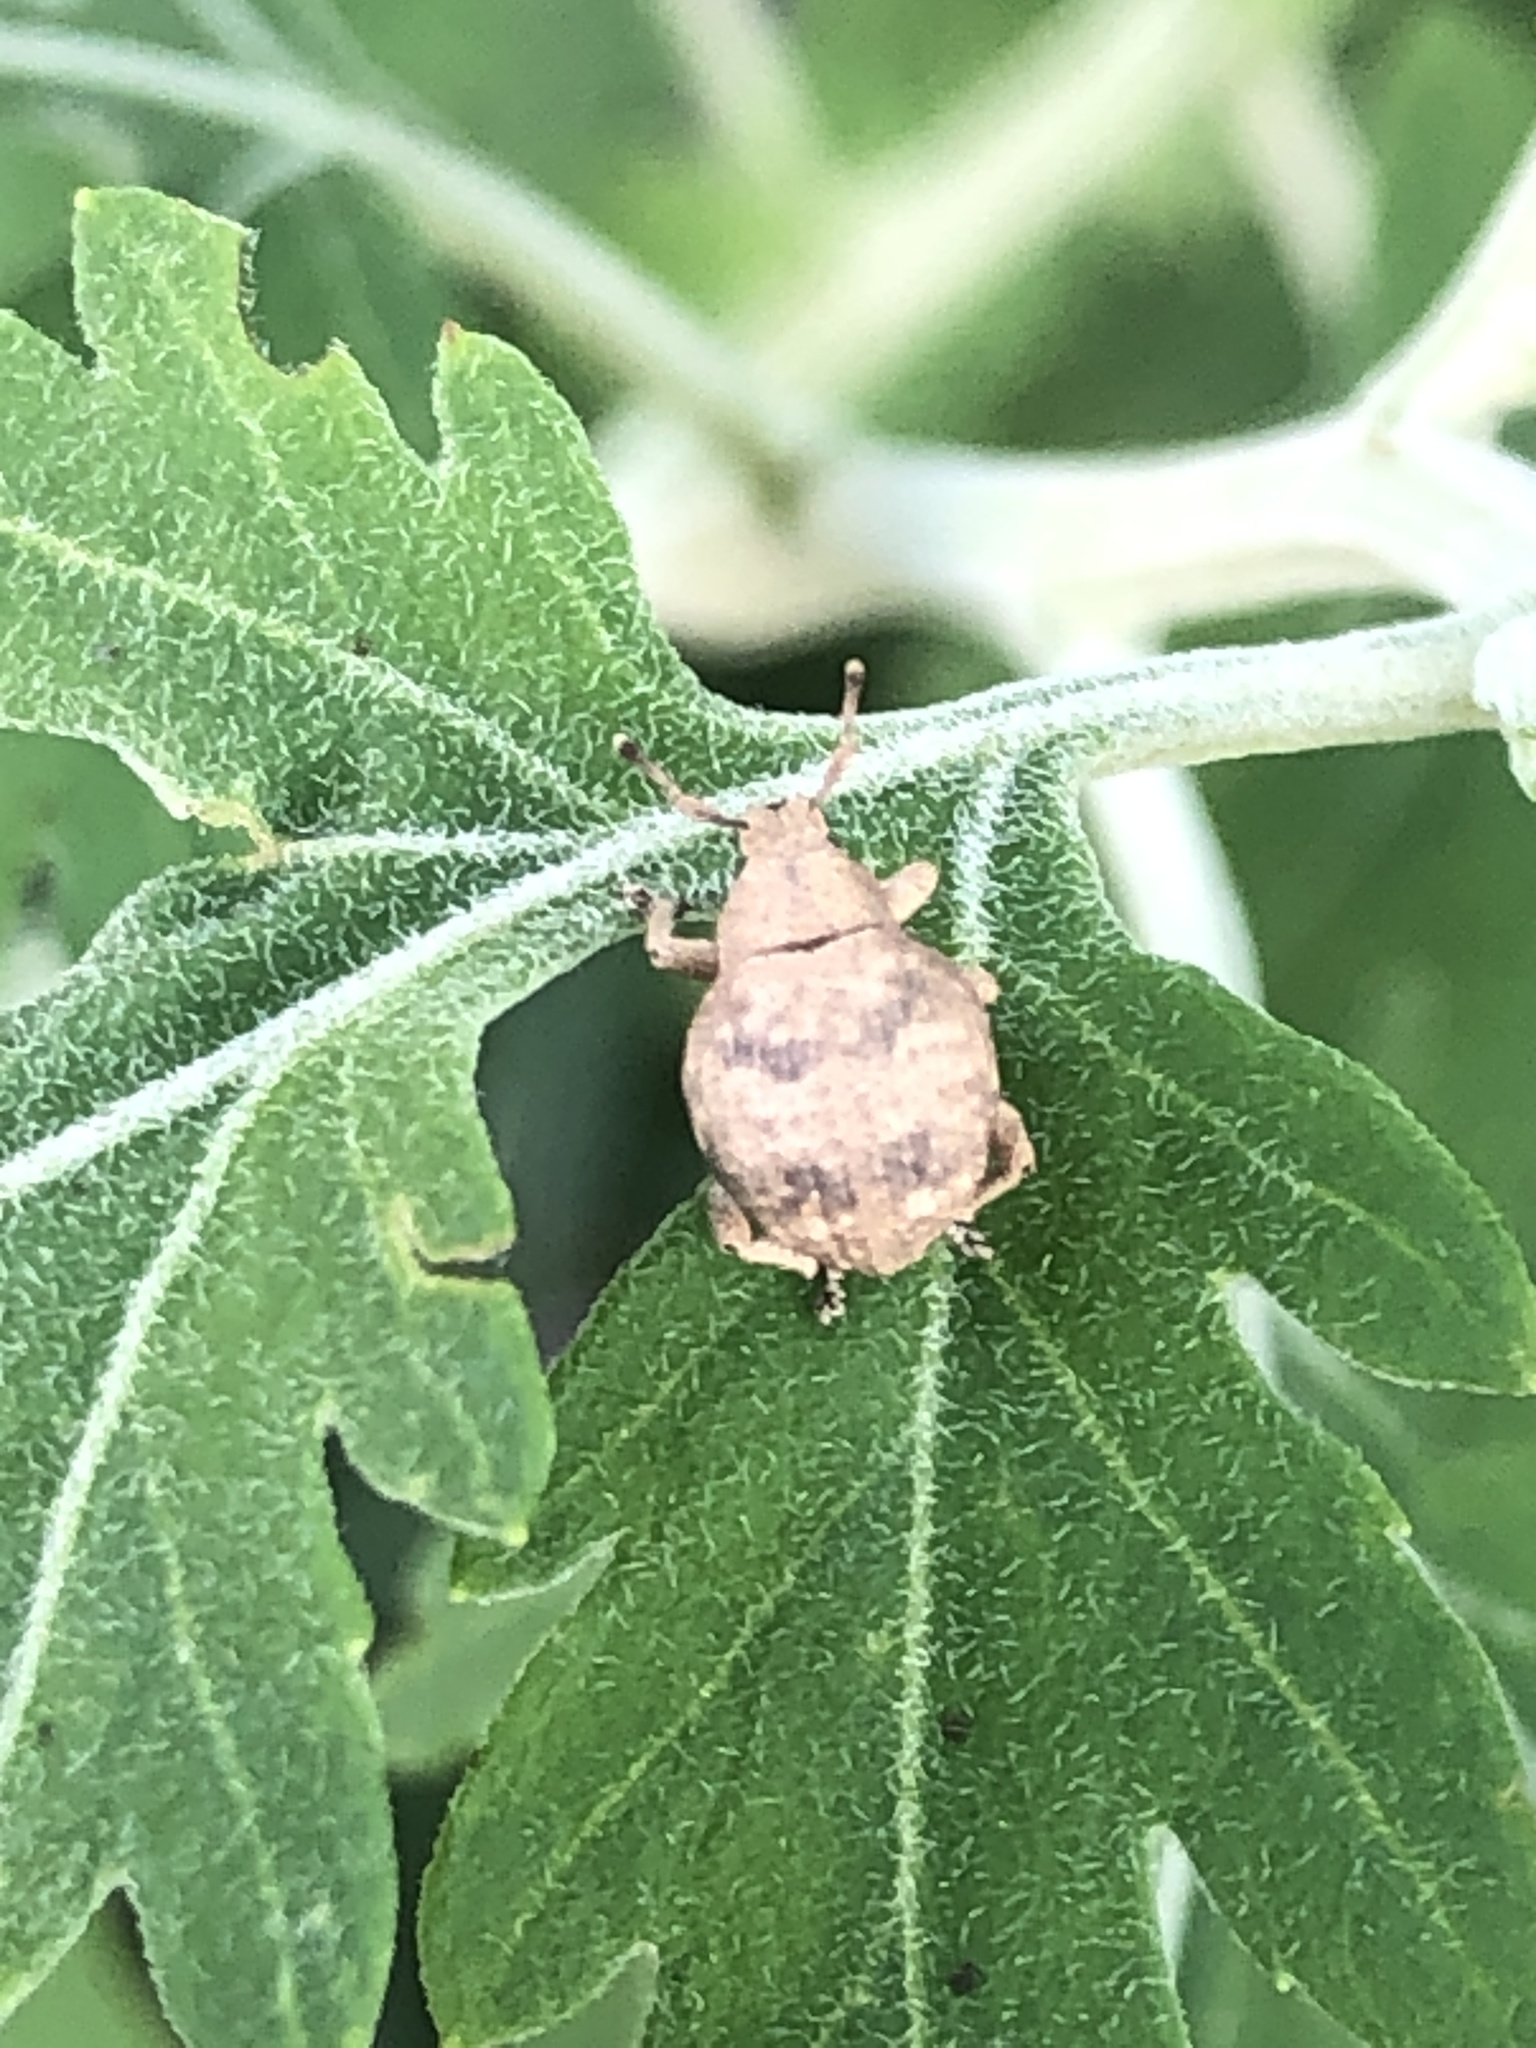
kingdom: Animalia
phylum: Arthropoda
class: Insecta
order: Coleoptera
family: Curculionidae
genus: Pseudocneorhinus
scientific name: Pseudocneorhinus bifasciatus
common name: Two-banded japanese weevil
